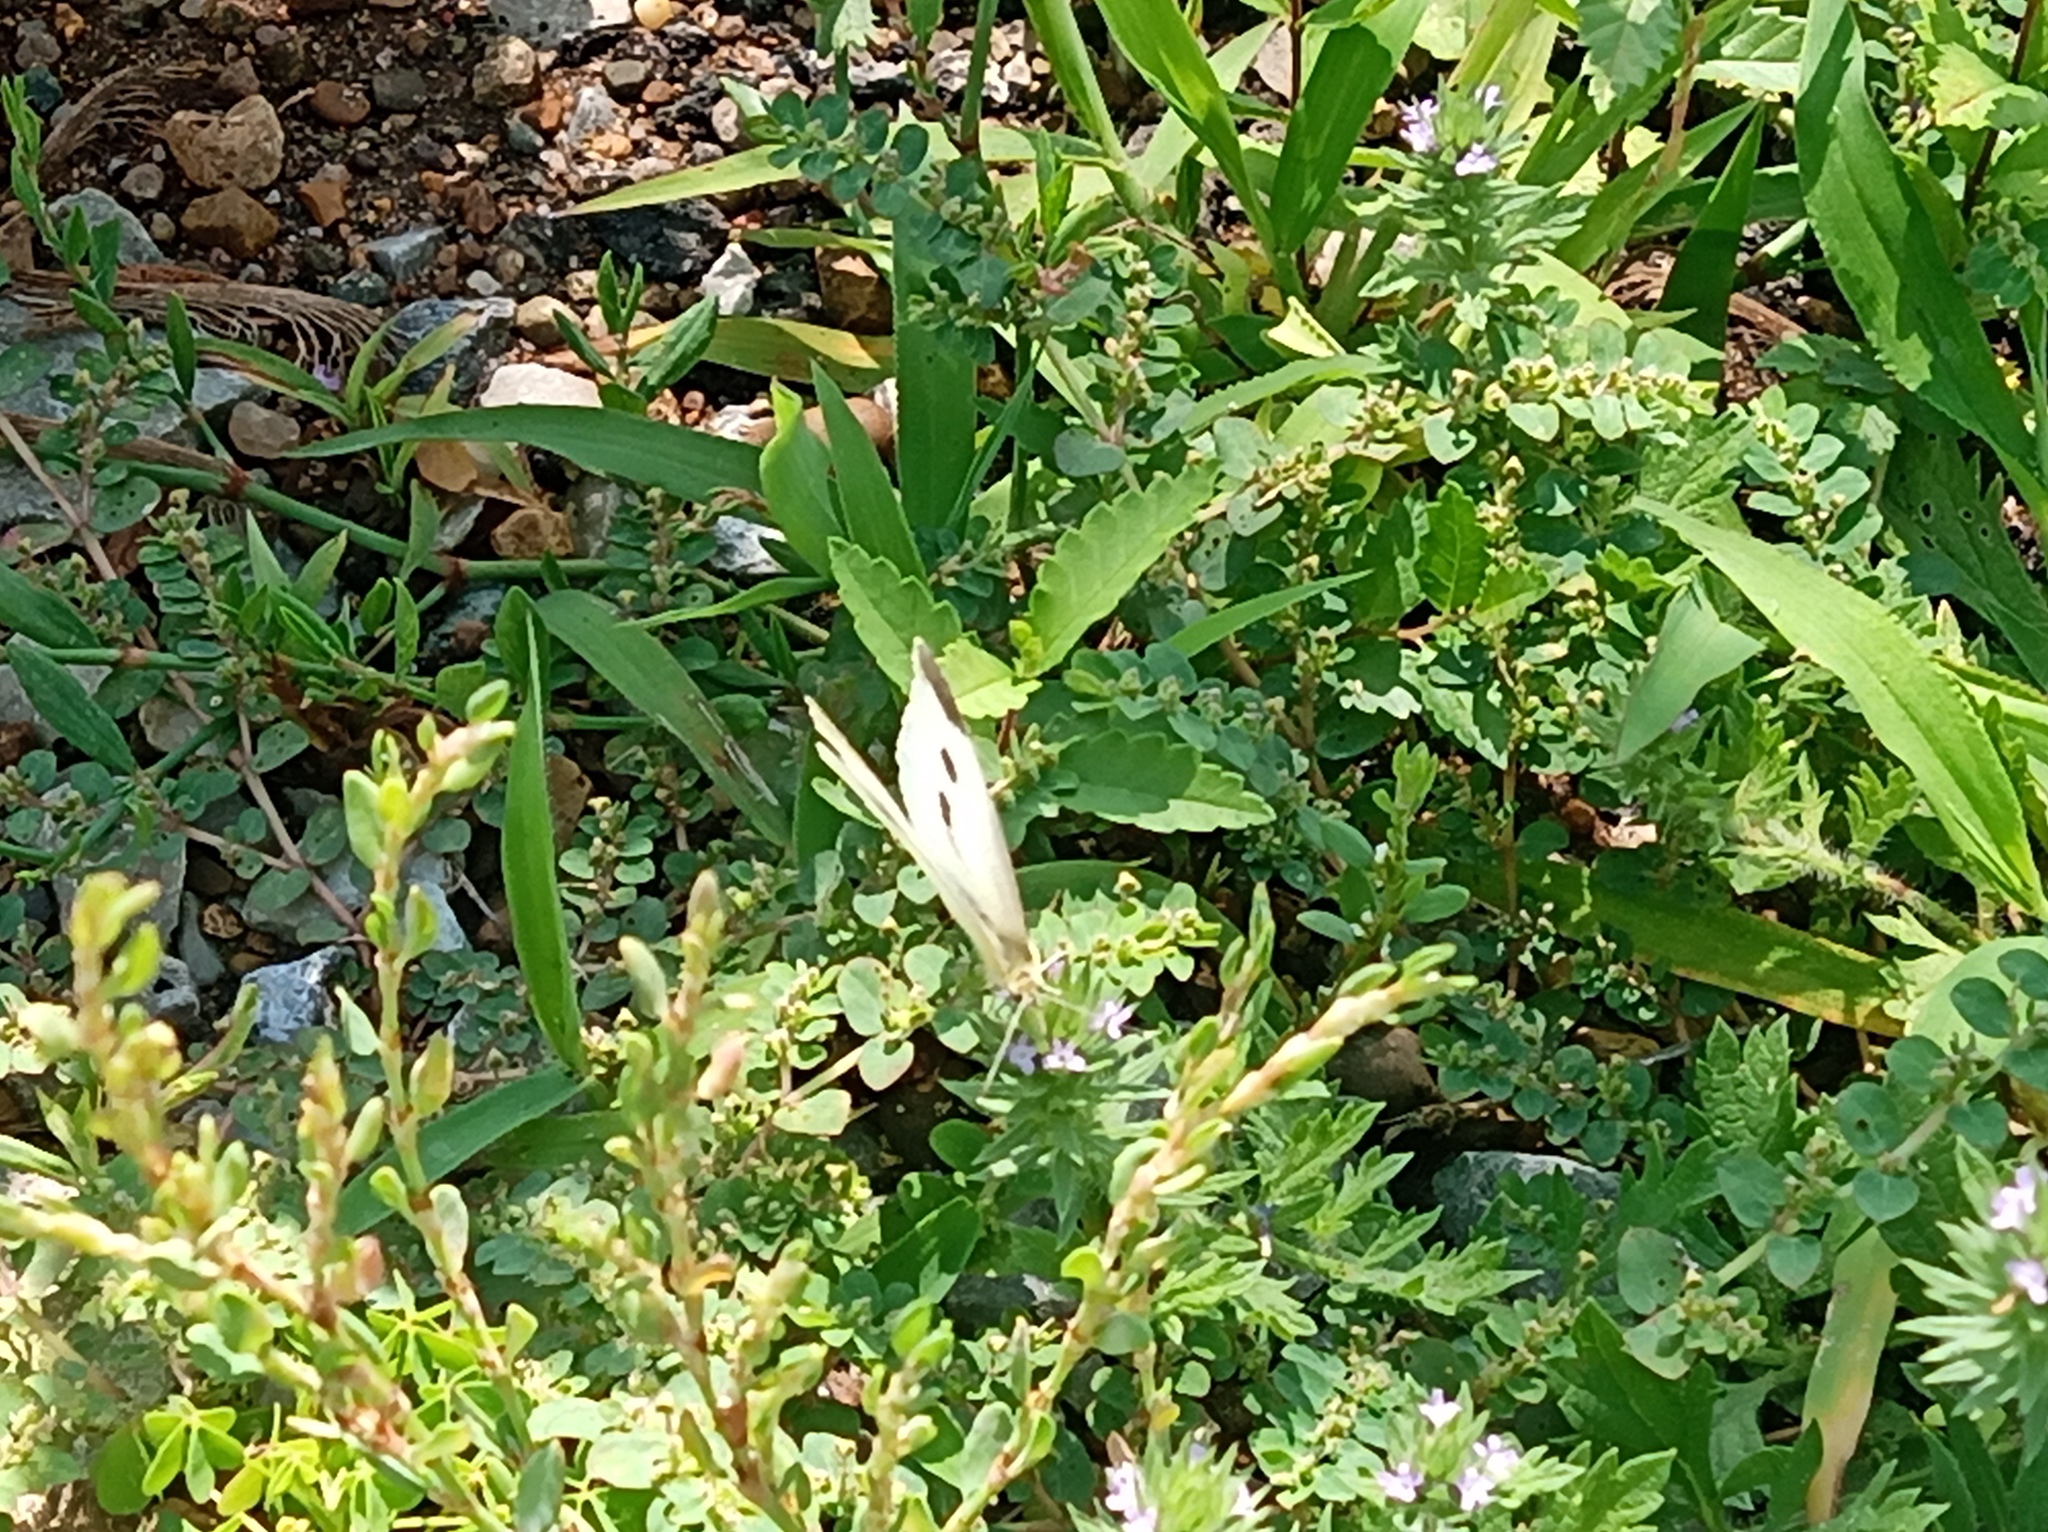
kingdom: Animalia
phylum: Arthropoda
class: Insecta
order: Lepidoptera
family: Pieridae
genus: Pieris
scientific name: Pieris rapae
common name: Small white
